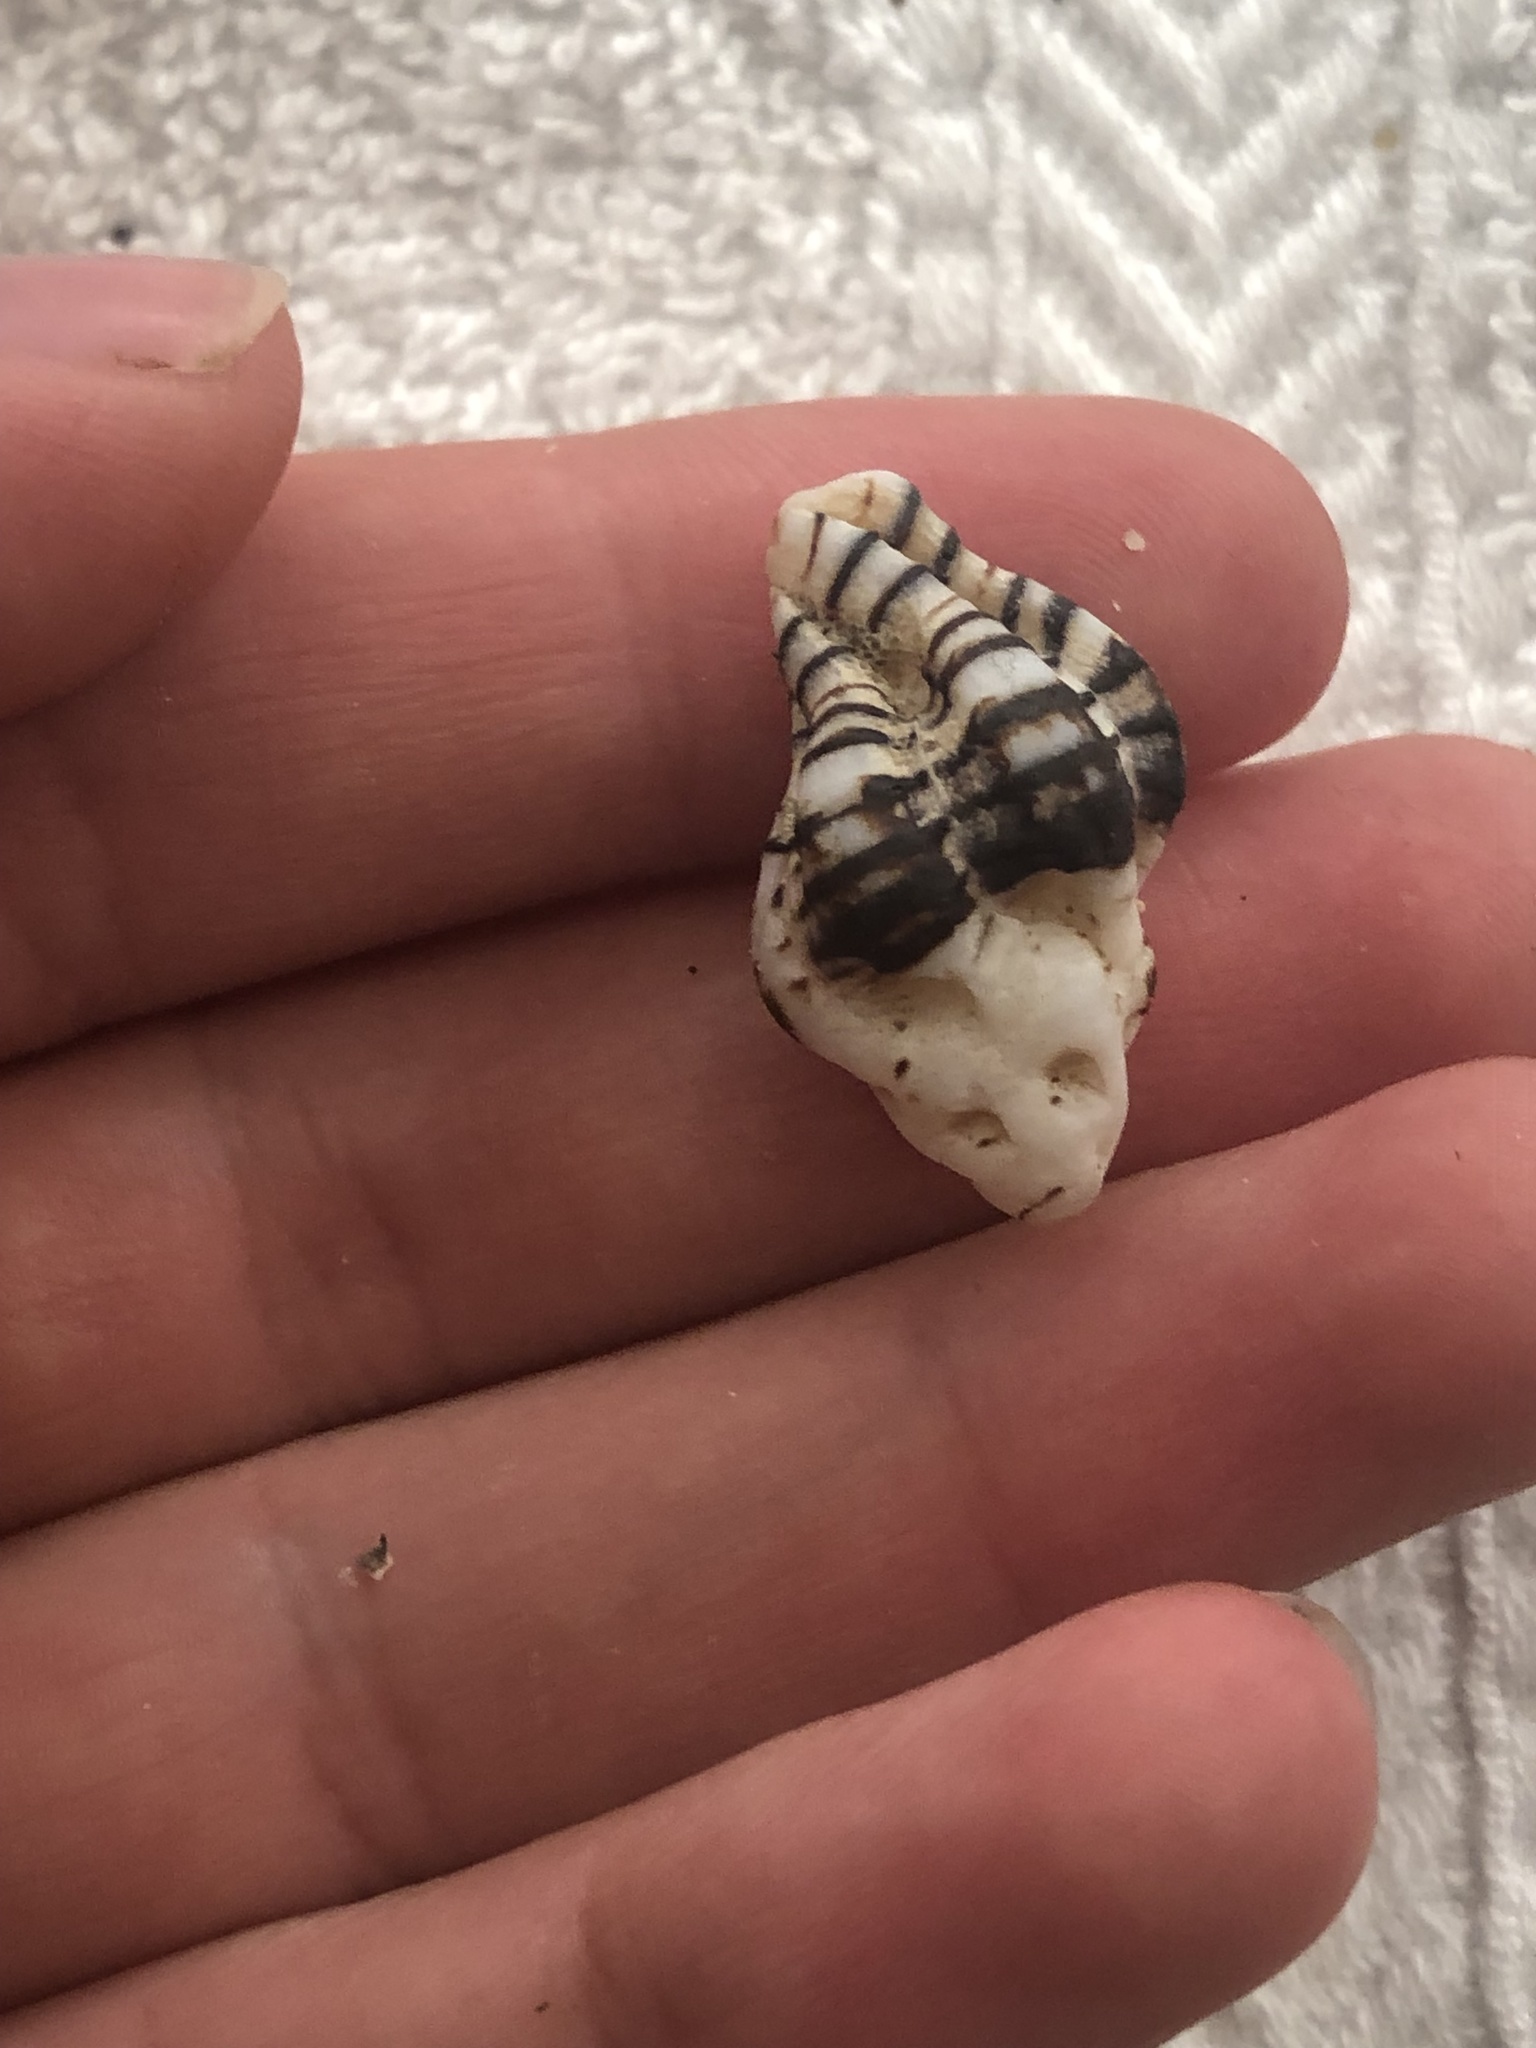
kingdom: Animalia
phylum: Mollusca
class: Gastropoda
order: Neogastropoda
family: Muricidae
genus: Maxwellia
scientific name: Maxwellia gemma
